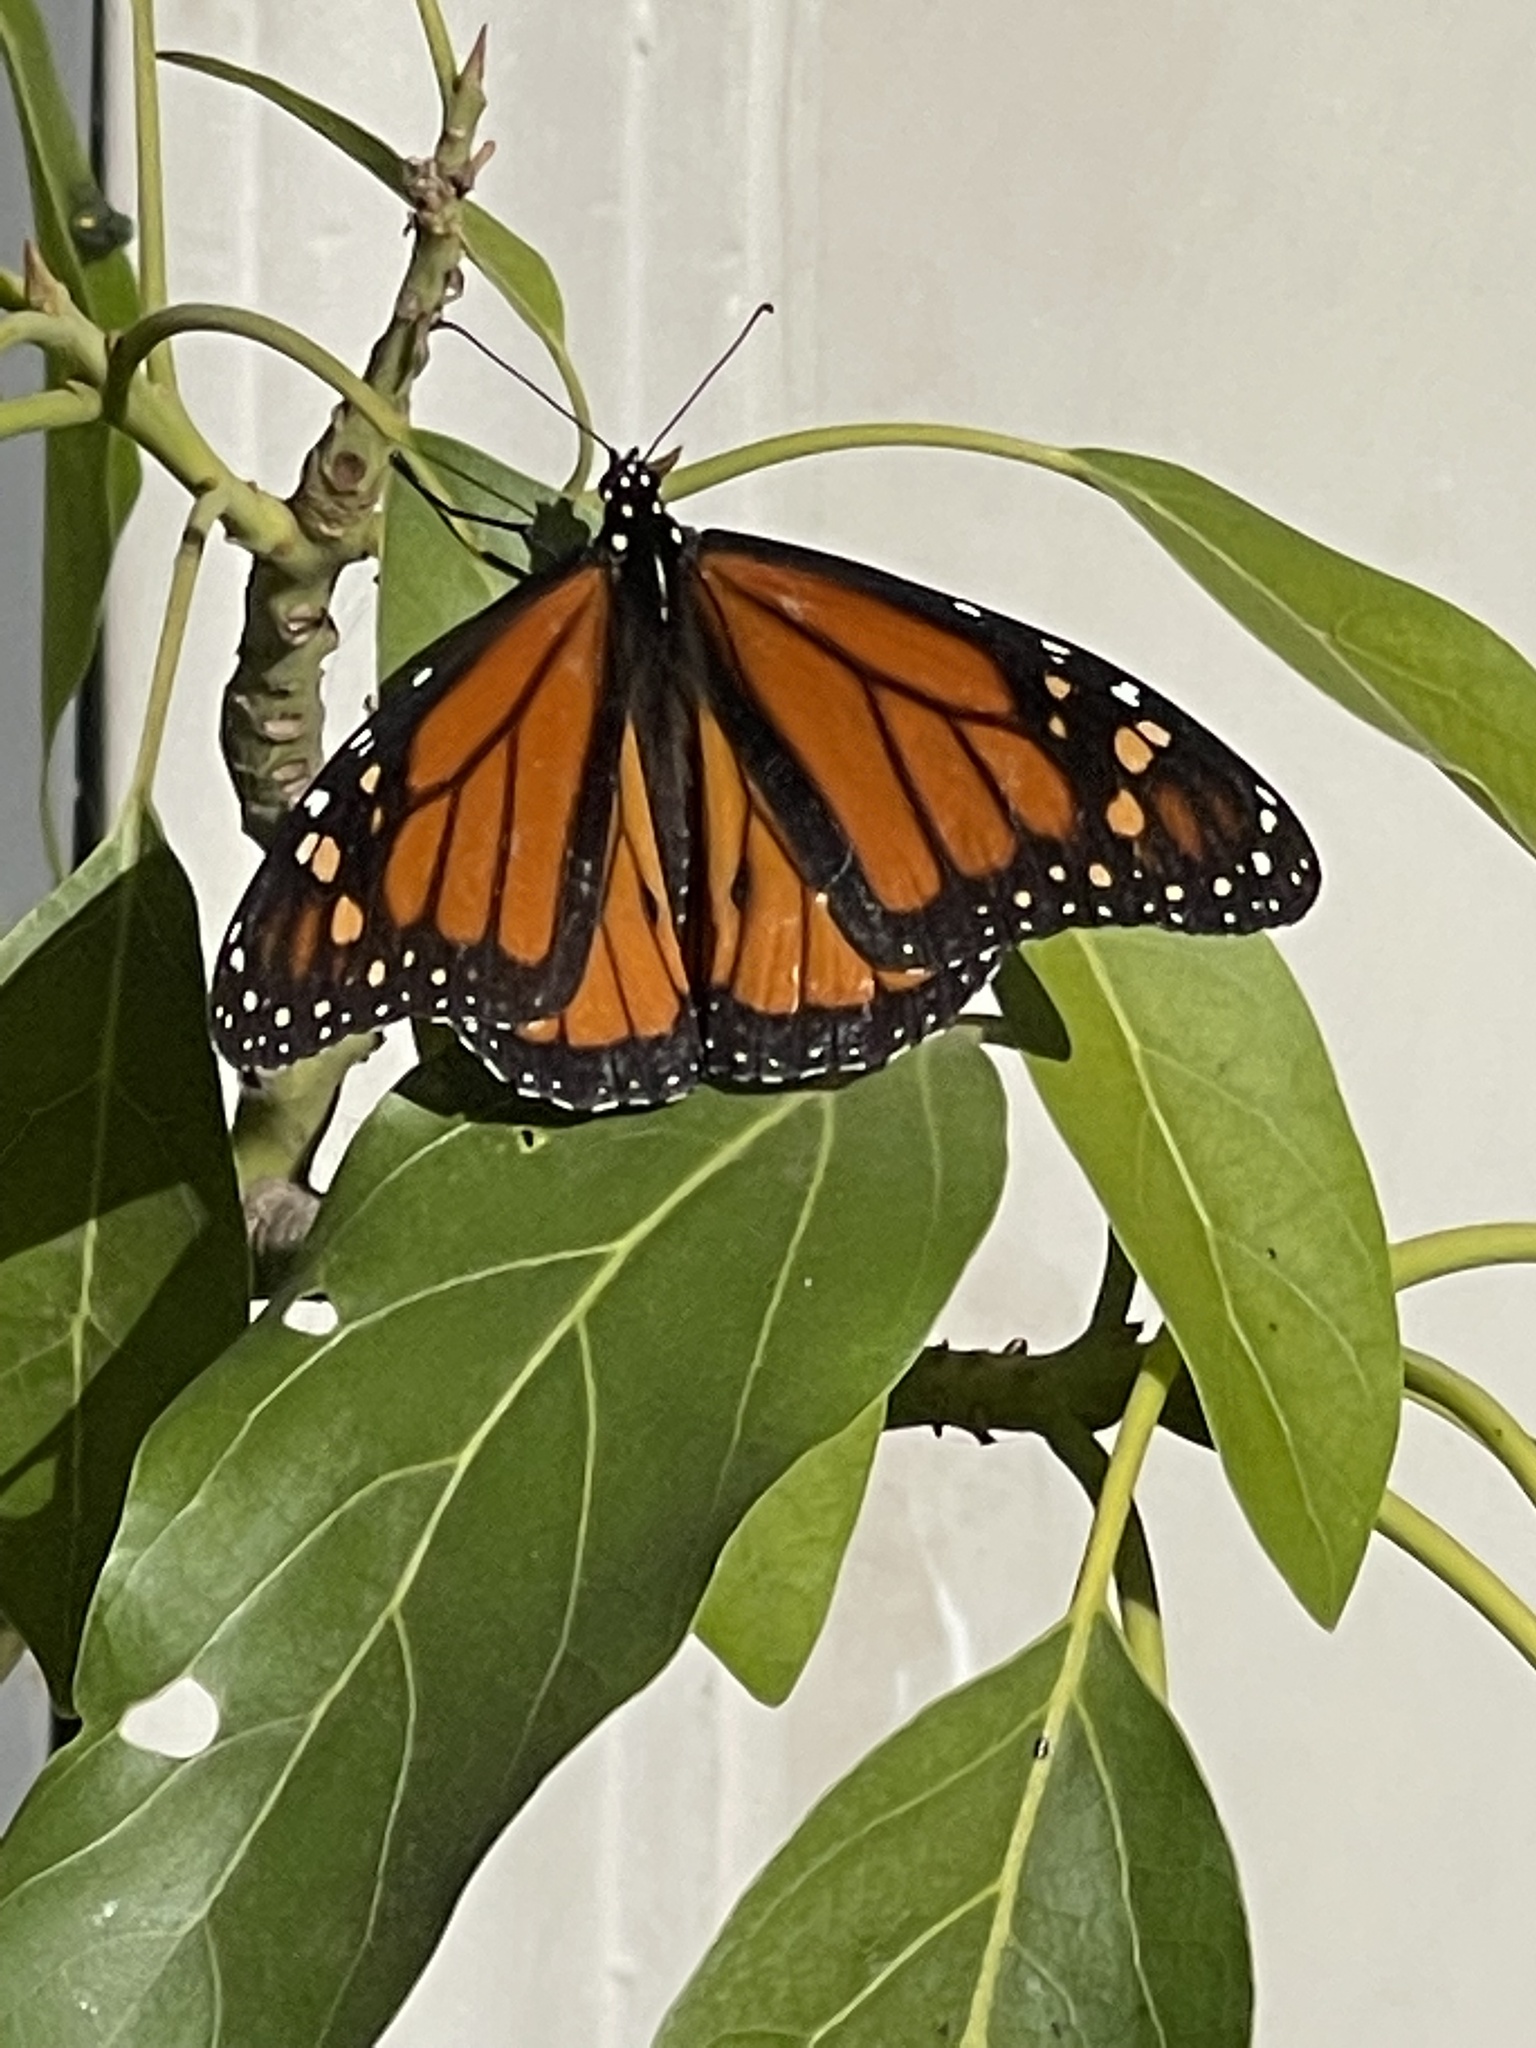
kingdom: Animalia
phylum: Arthropoda
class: Insecta
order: Lepidoptera
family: Nymphalidae
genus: Danaus
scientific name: Danaus plexippus
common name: Monarch
